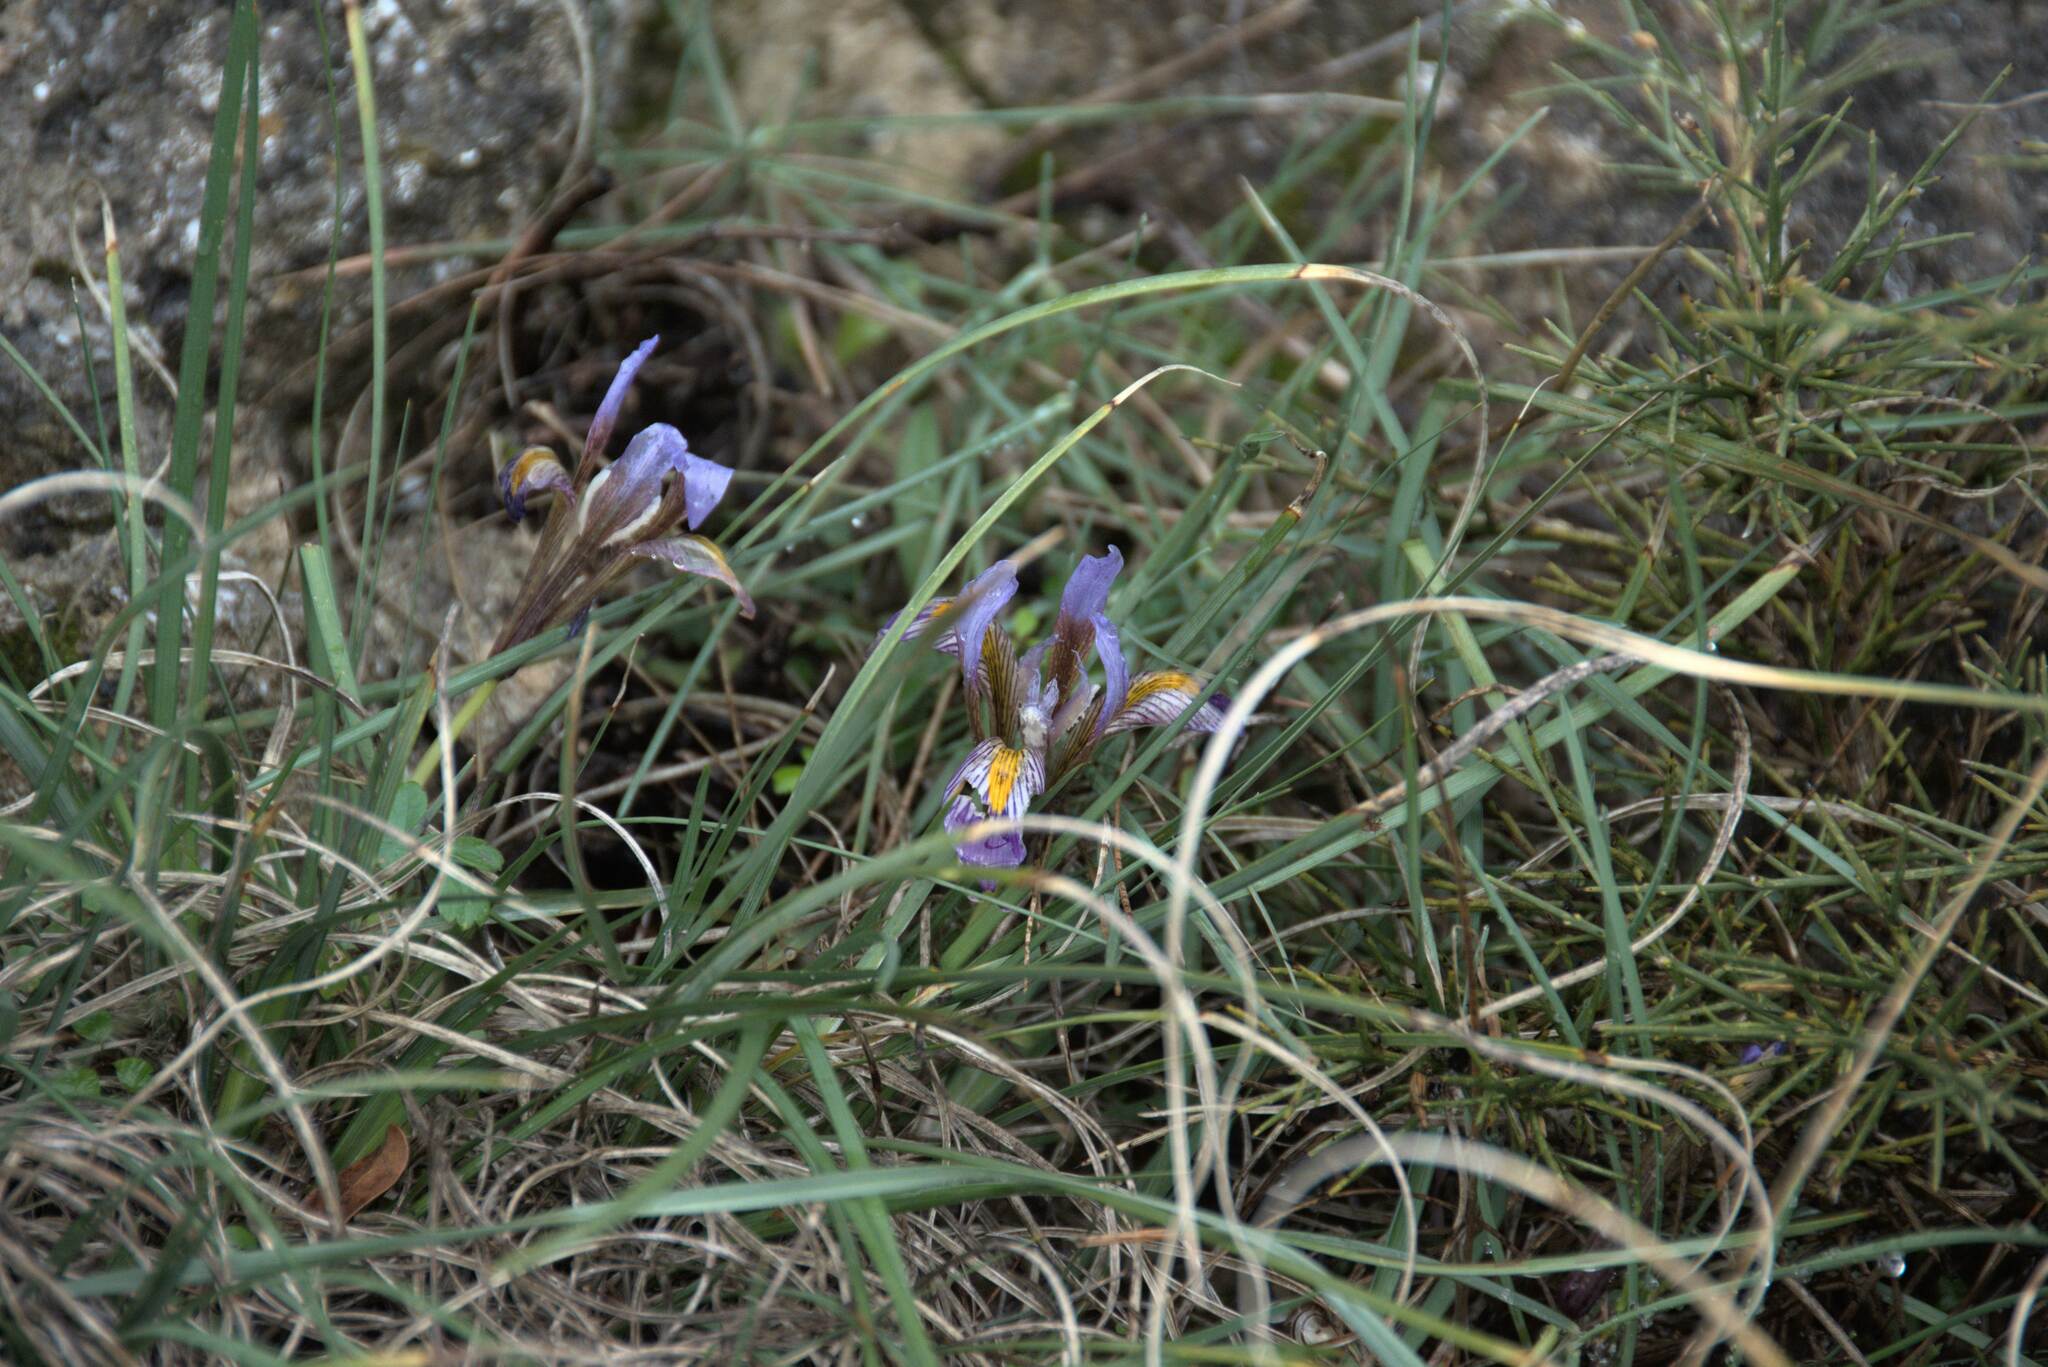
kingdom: Plantae
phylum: Tracheophyta
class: Liliopsida
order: Asparagales
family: Iridaceae
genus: Iris
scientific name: Iris unguicularis
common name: Algerian iris
